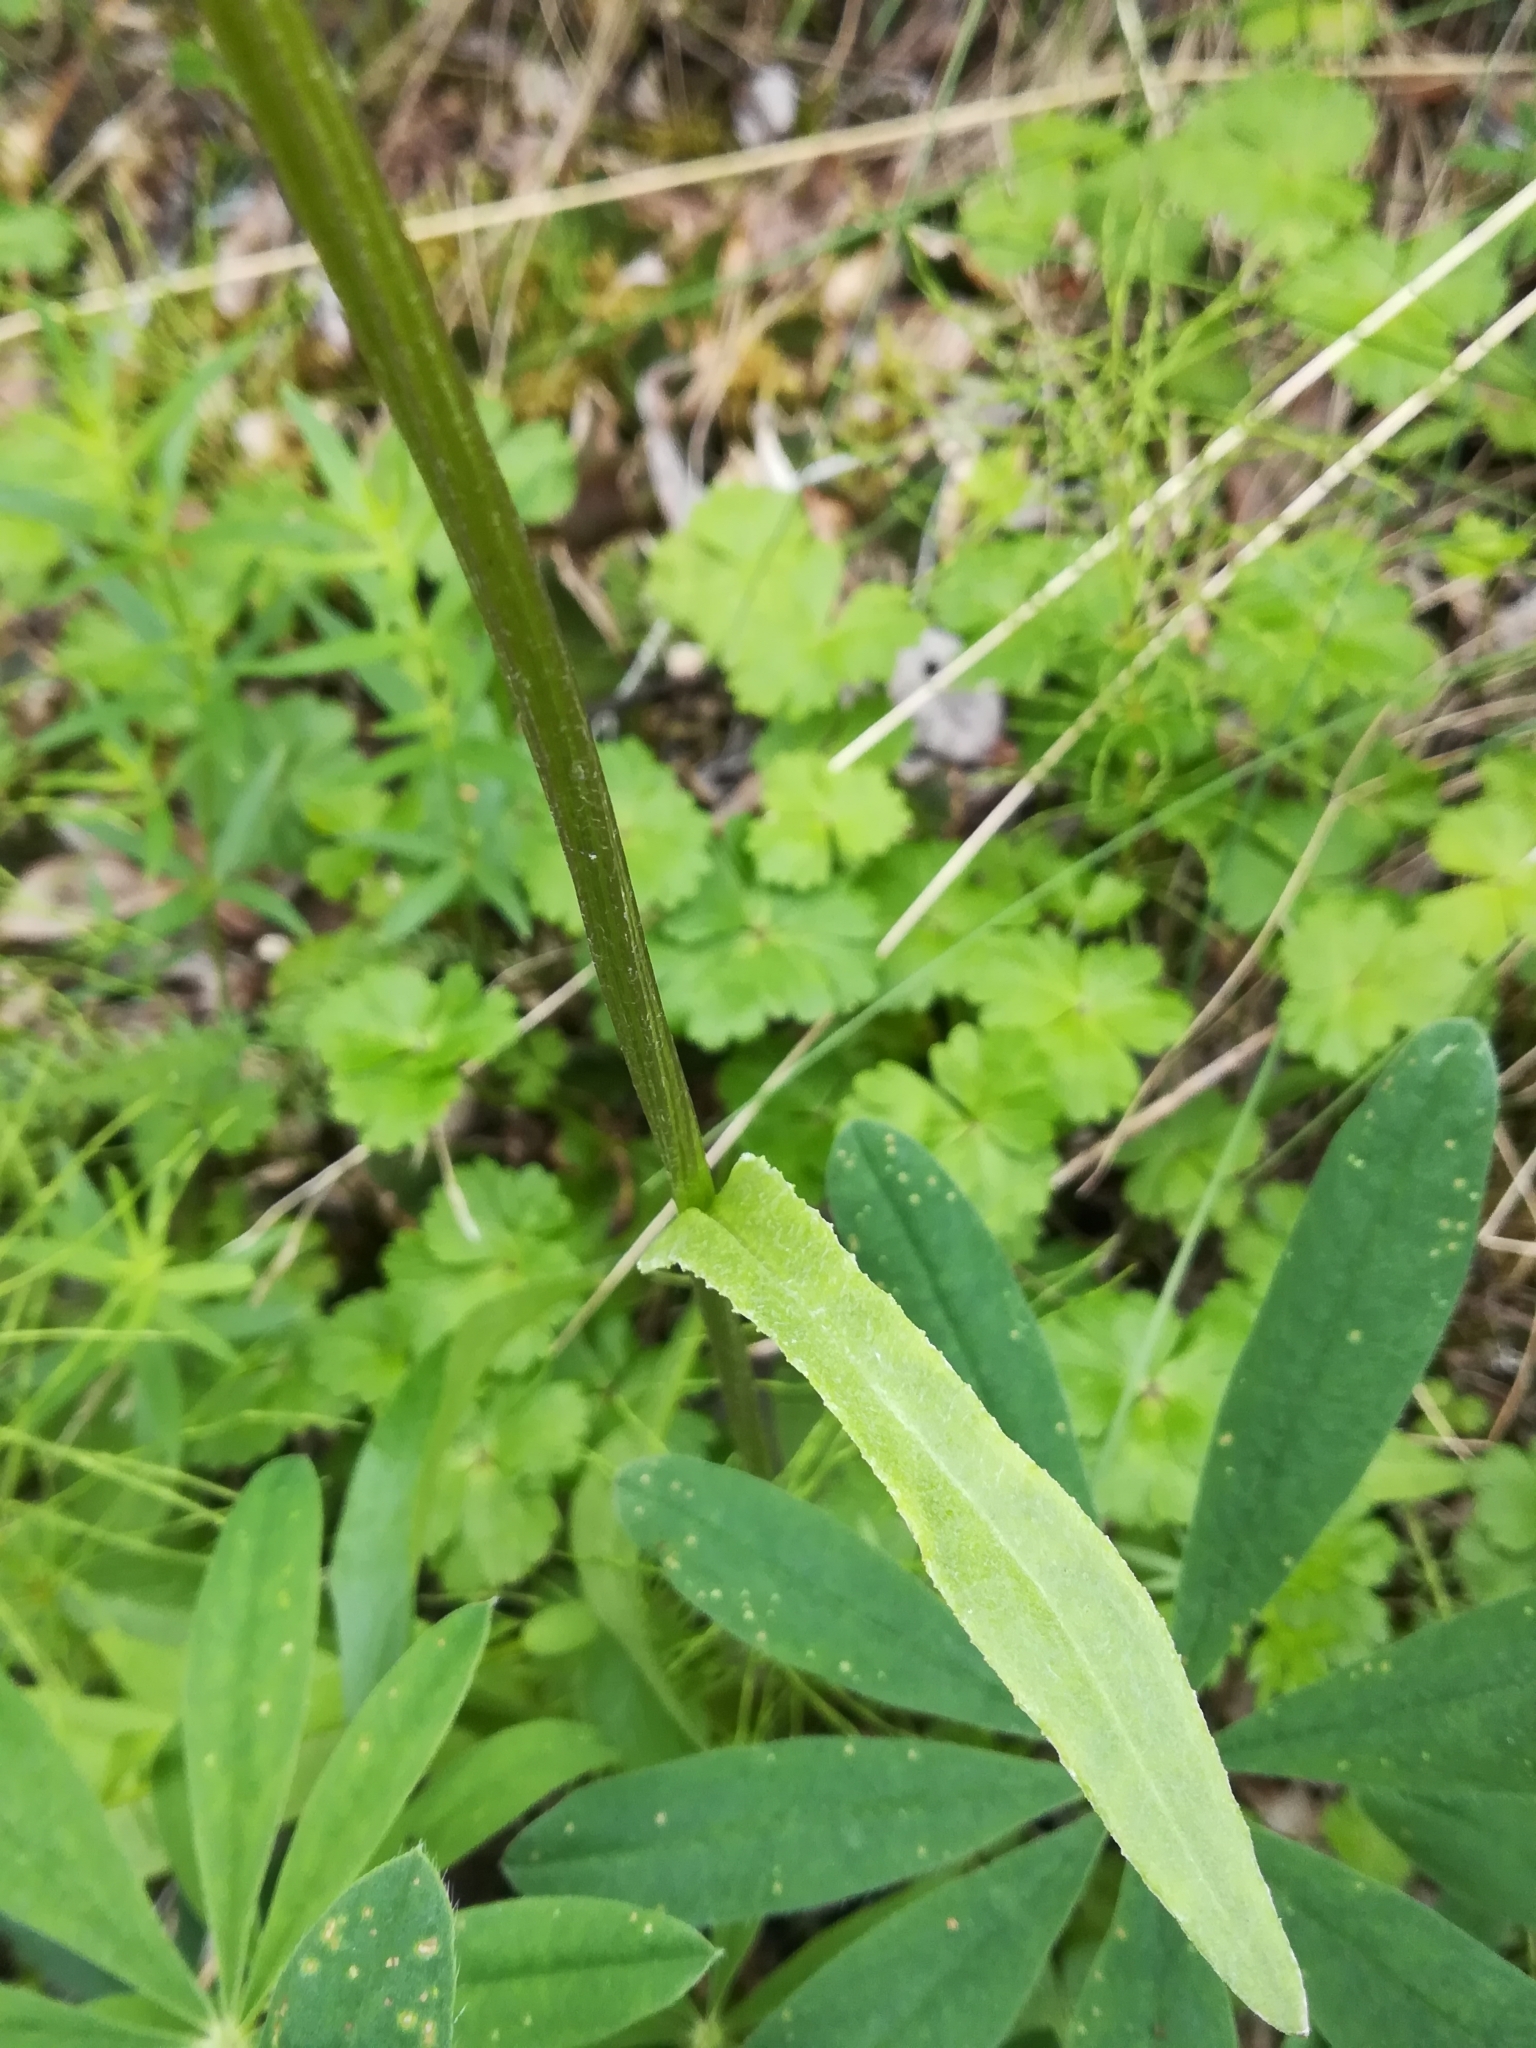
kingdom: Plantae
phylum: Tracheophyta
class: Magnoliopsida
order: Asterales
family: Asteraceae
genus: Senecio
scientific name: Senecio lugens
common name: Black-tip groundsel
